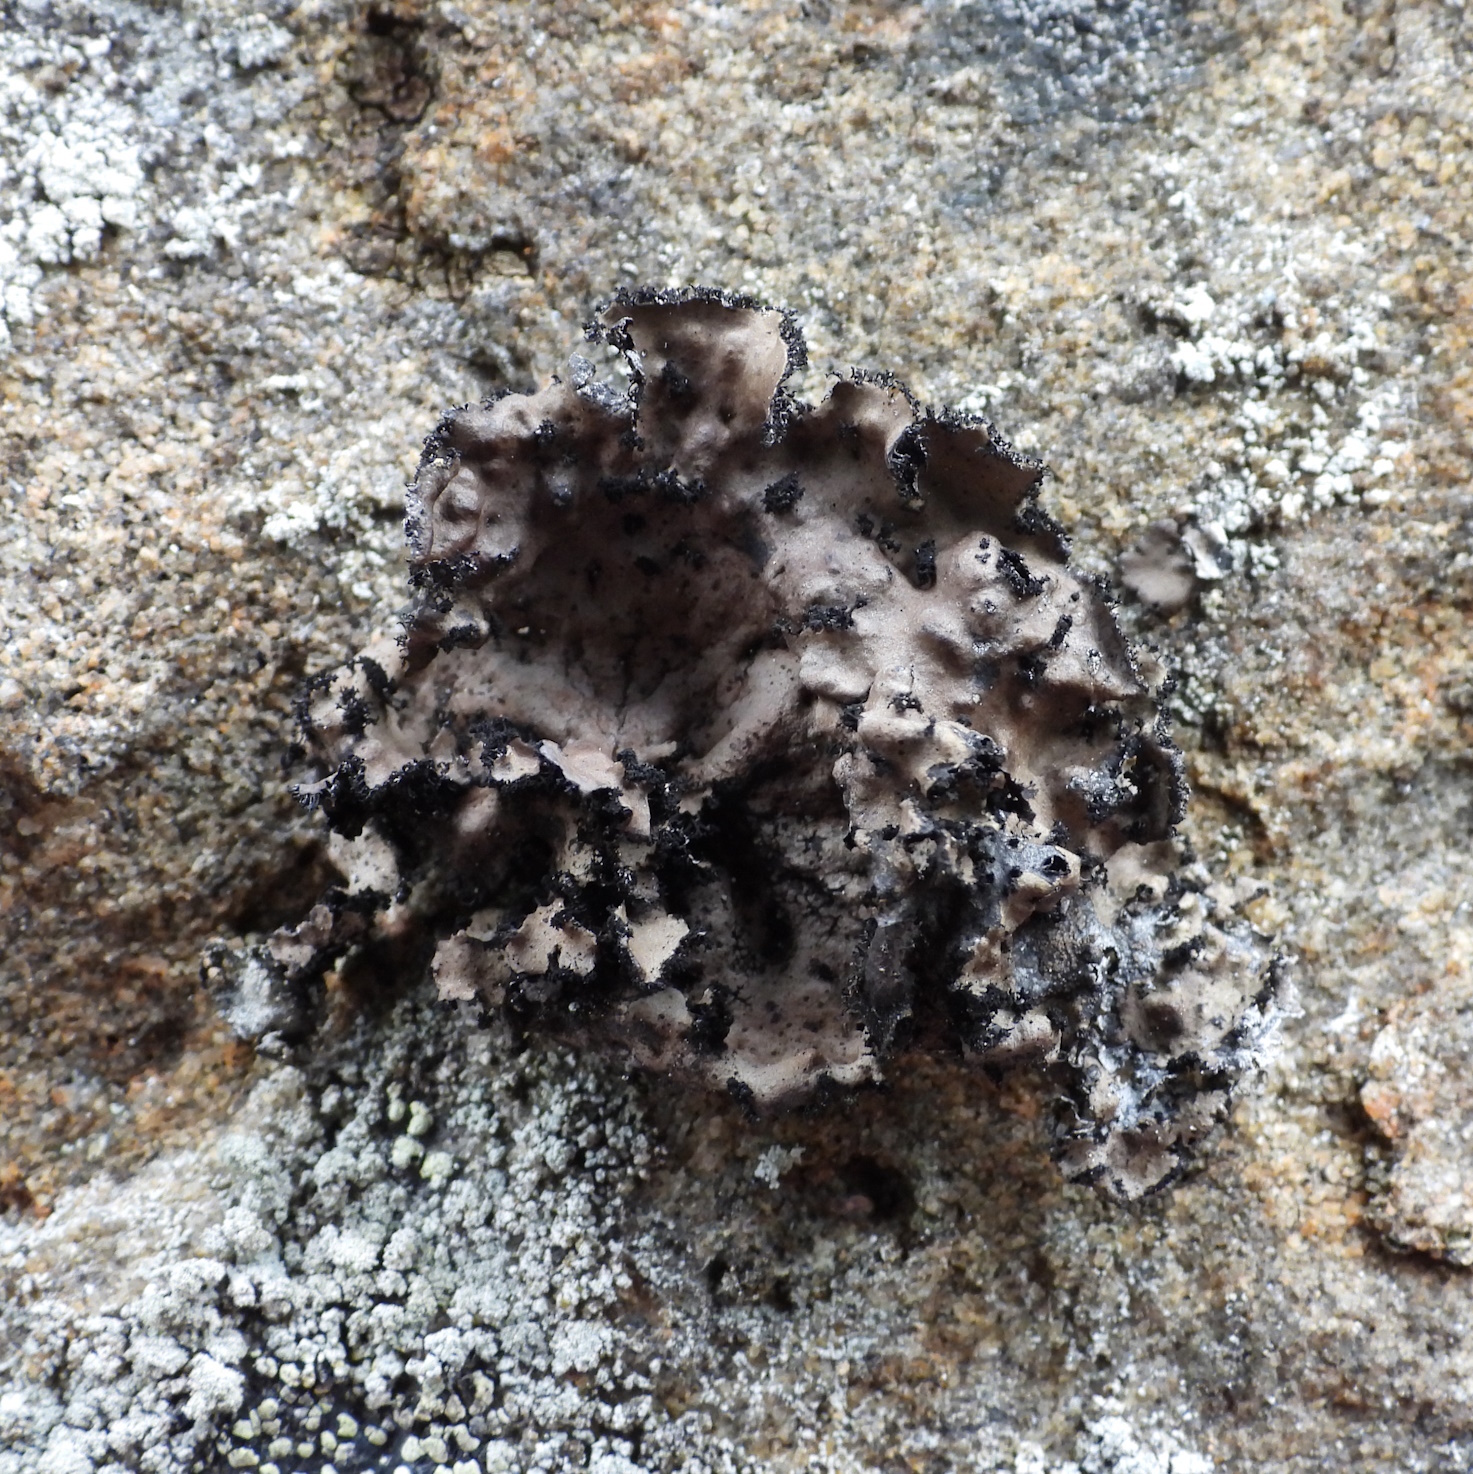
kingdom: Fungi
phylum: Ascomycota
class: Lecanoromycetes
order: Umbilicariales
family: Umbilicariaceae
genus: Umbilicaria
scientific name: Umbilicaria polyrrhiza
